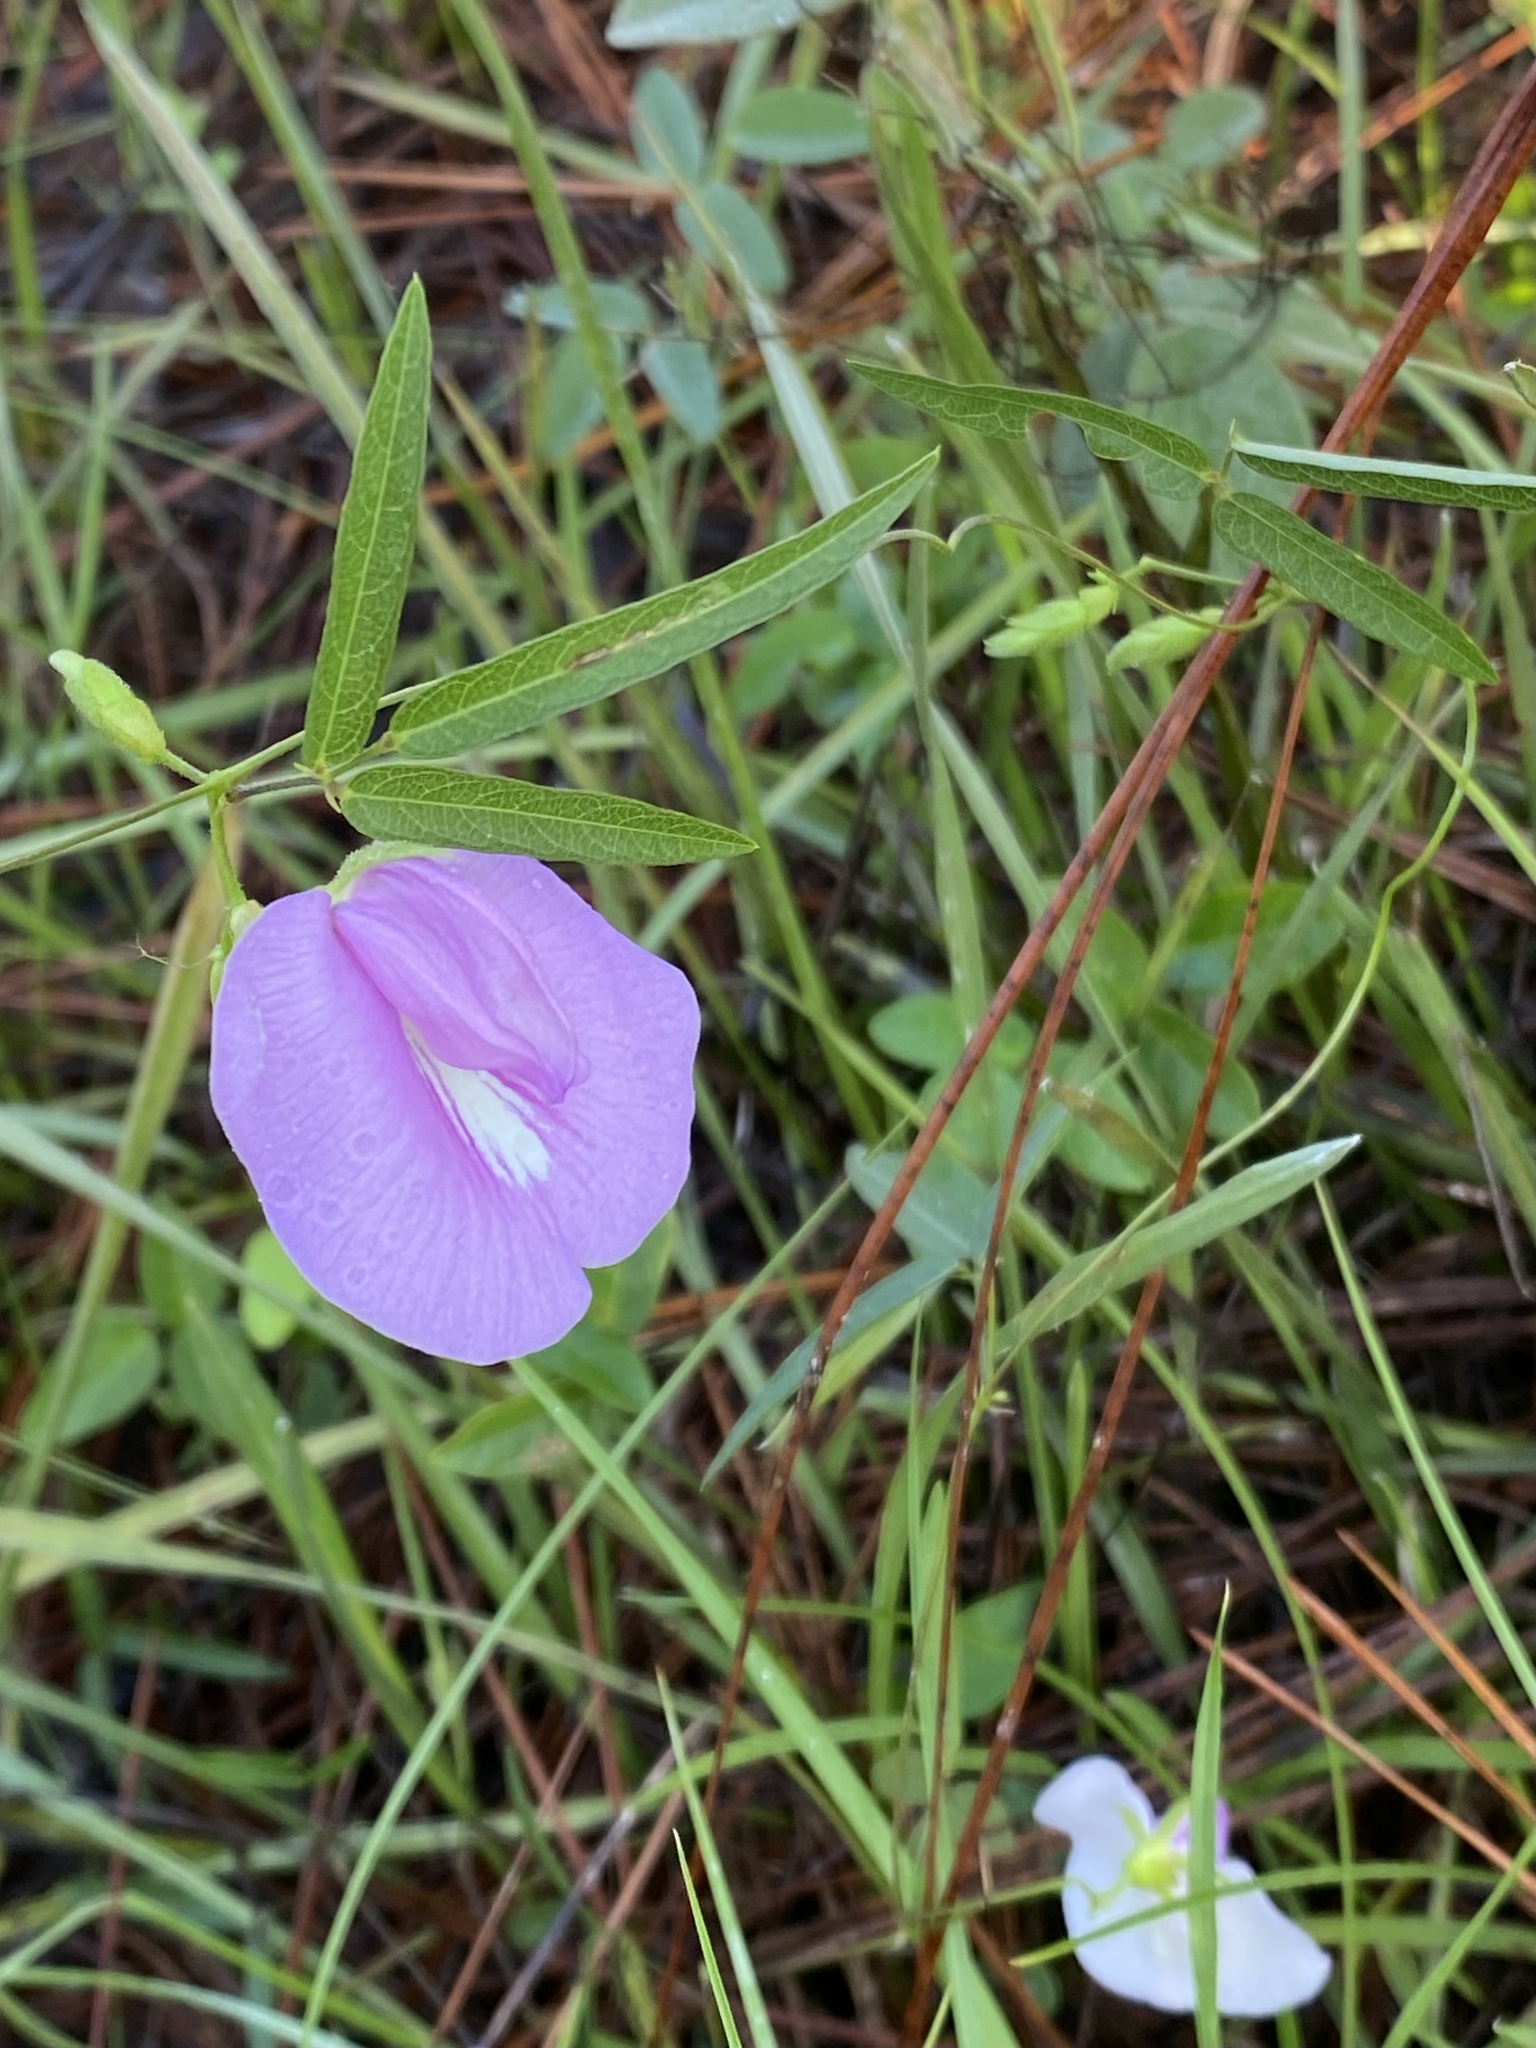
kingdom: Plantae
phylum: Tracheophyta
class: Magnoliopsida
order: Fabales
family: Fabaceae
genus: Centrosema
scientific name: Centrosema virginianum
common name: Butterfly-pea
